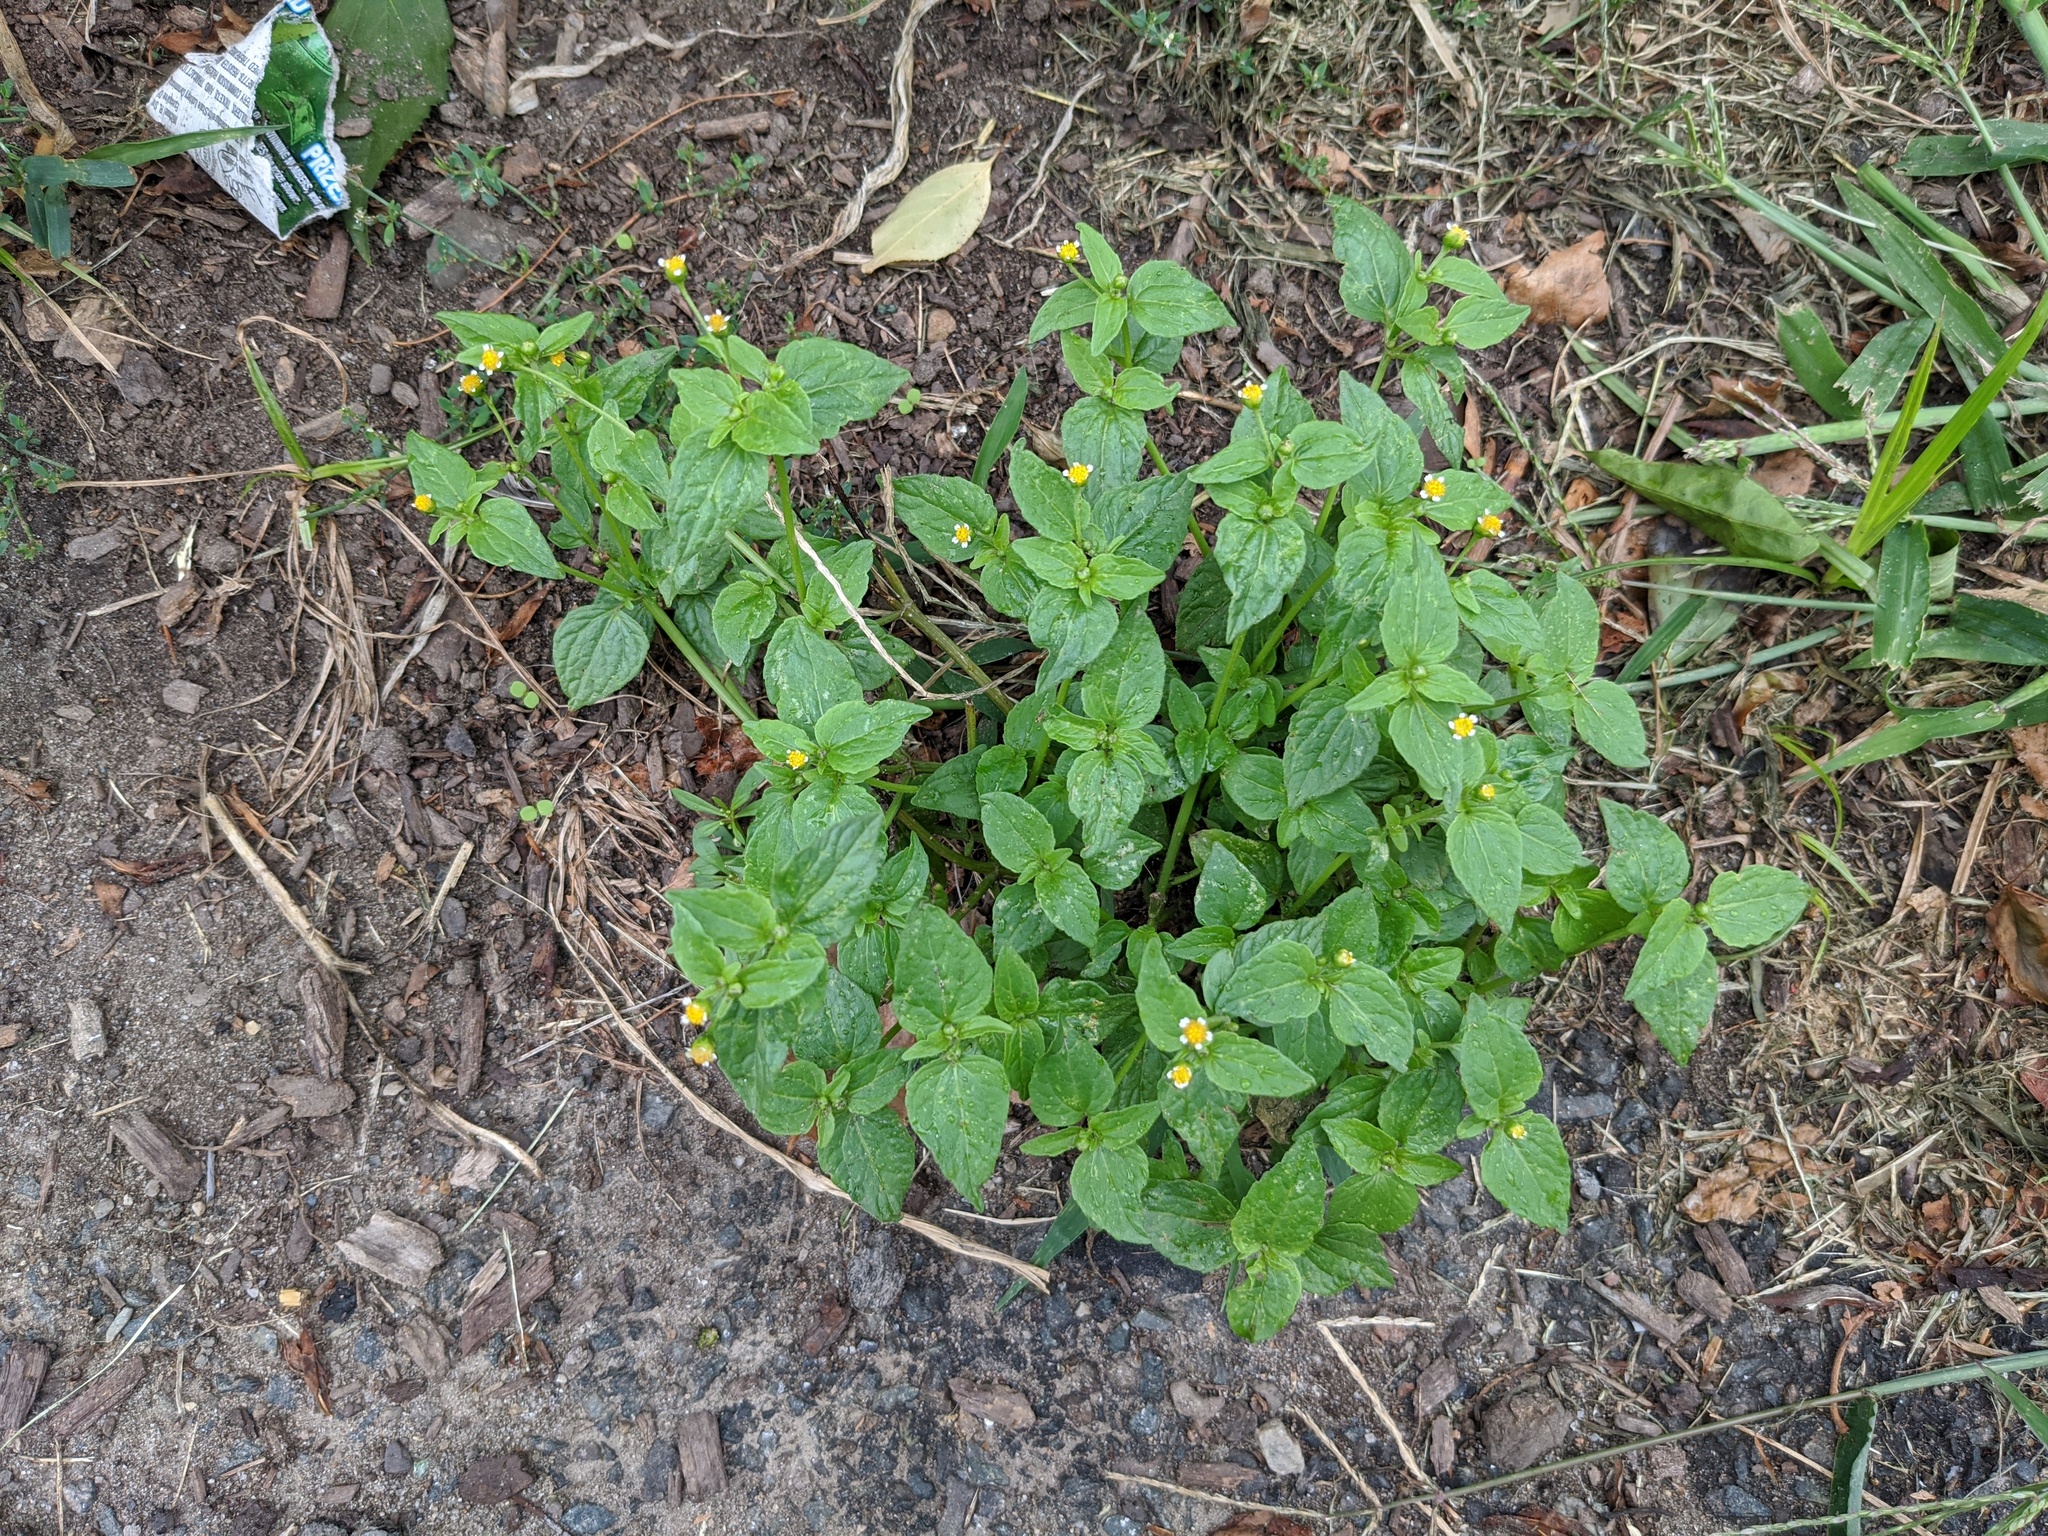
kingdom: Plantae
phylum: Tracheophyta
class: Magnoliopsida
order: Asterales
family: Asteraceae
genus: Galinsoga
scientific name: Galinsoga quadriradiata
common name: Shaggy soldier
